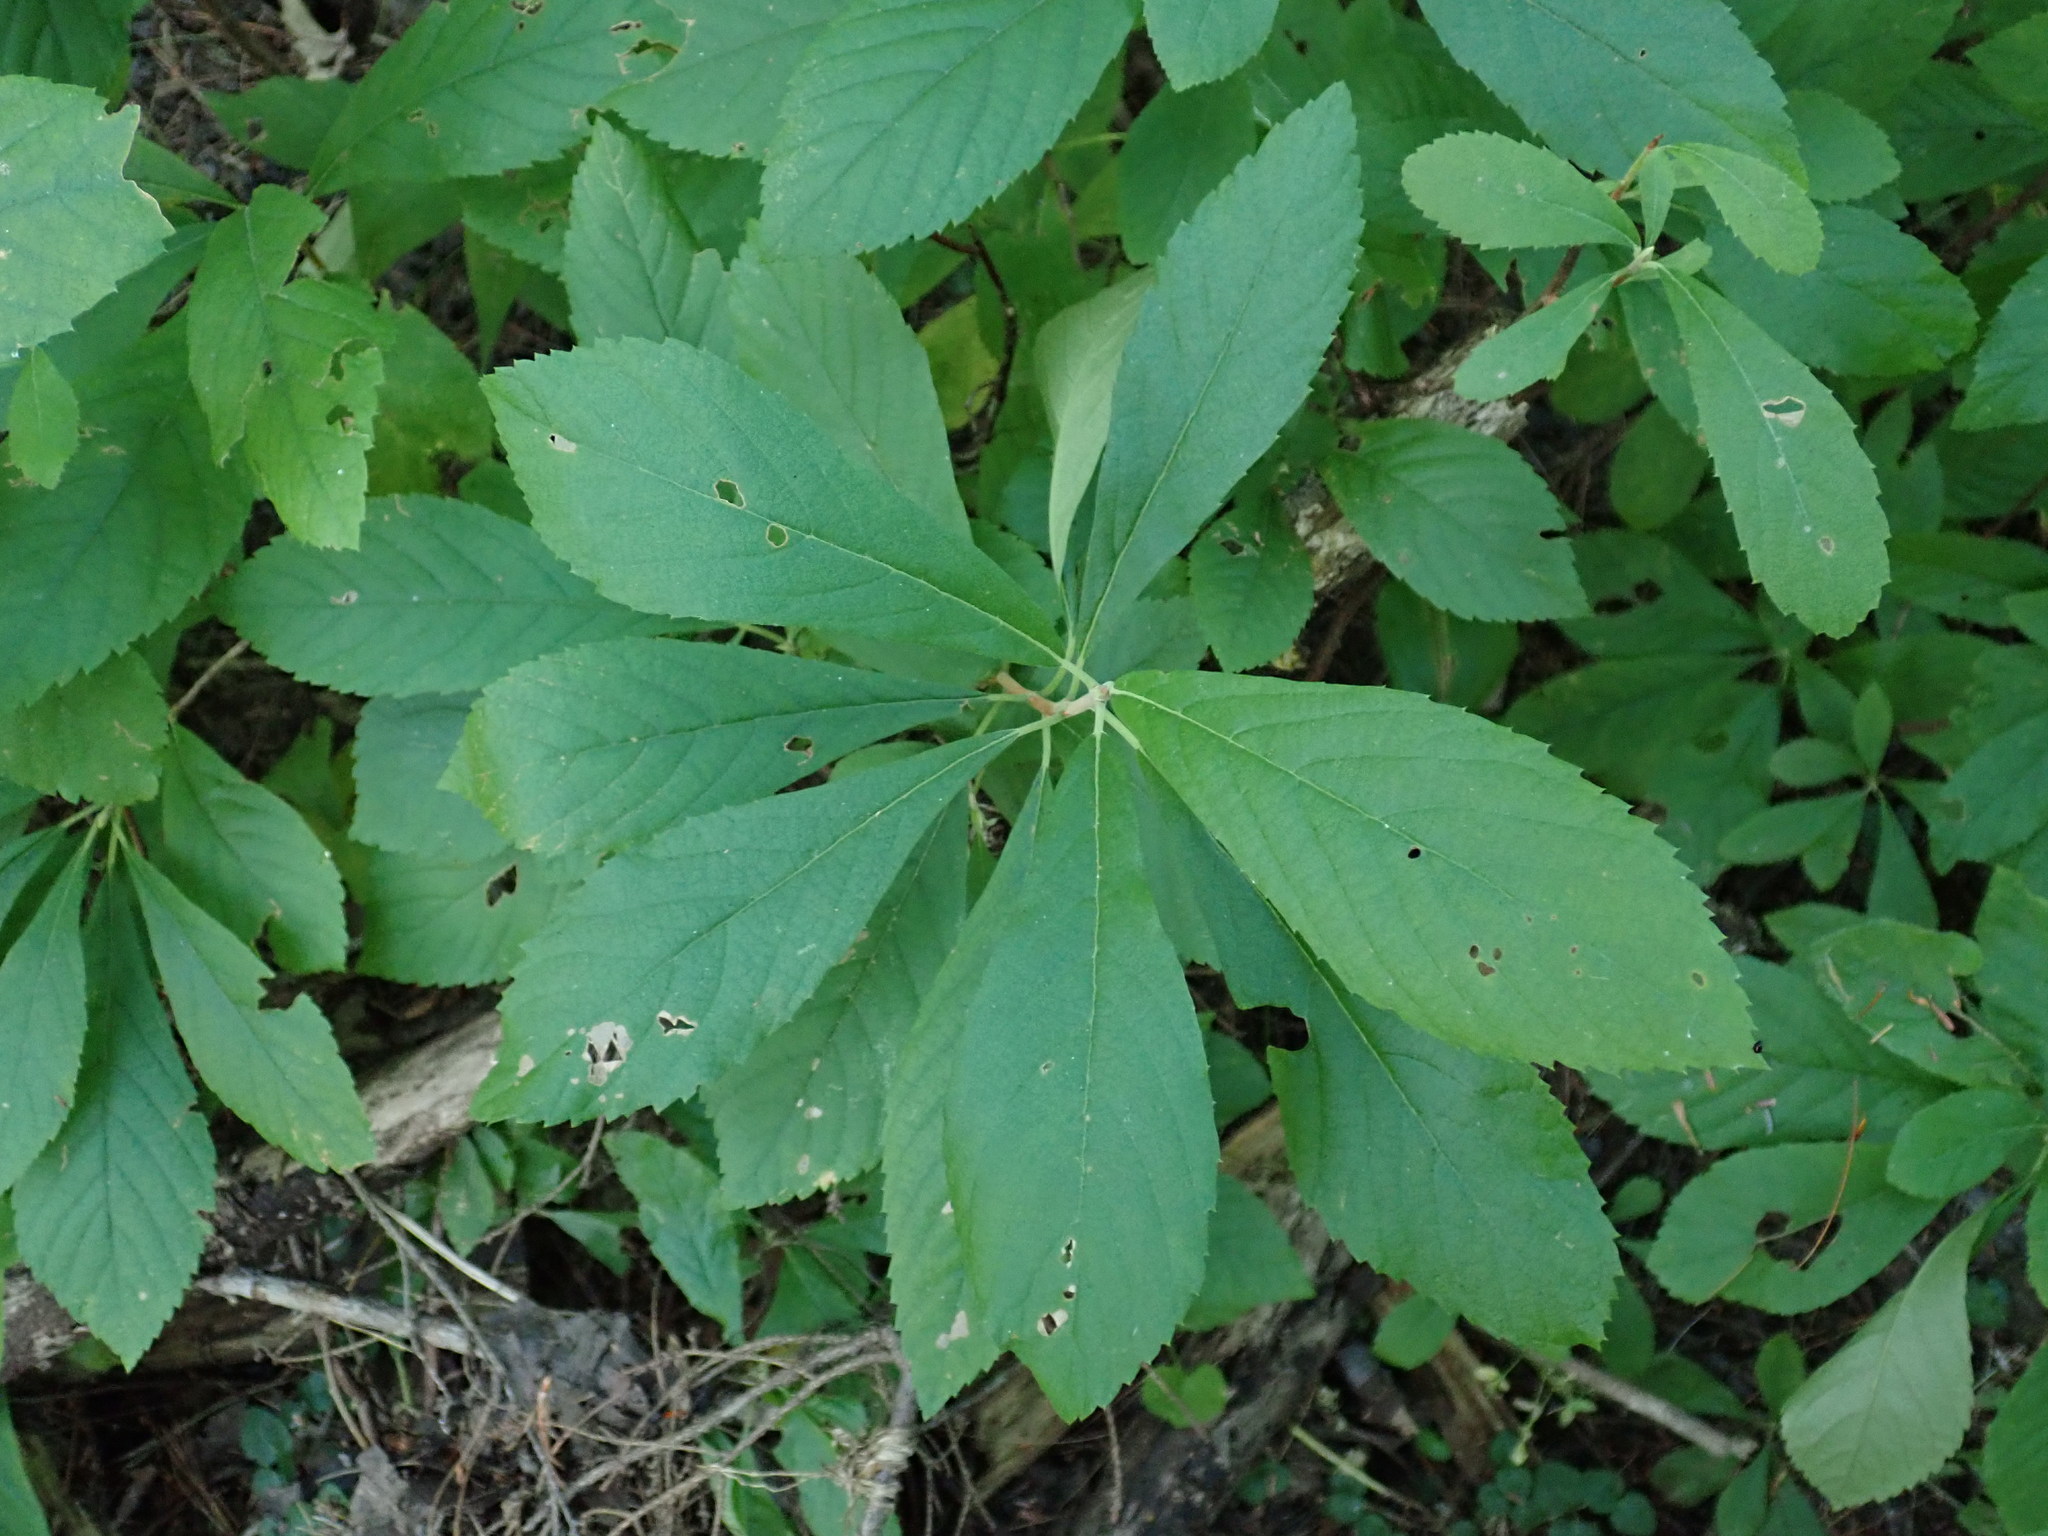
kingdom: Plantae
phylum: Tracheophyta
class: Magnoliopsida
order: Ericales
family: Clethraceae
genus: Clethra
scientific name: Clethra alnifolia
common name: Sweet pepperbush
